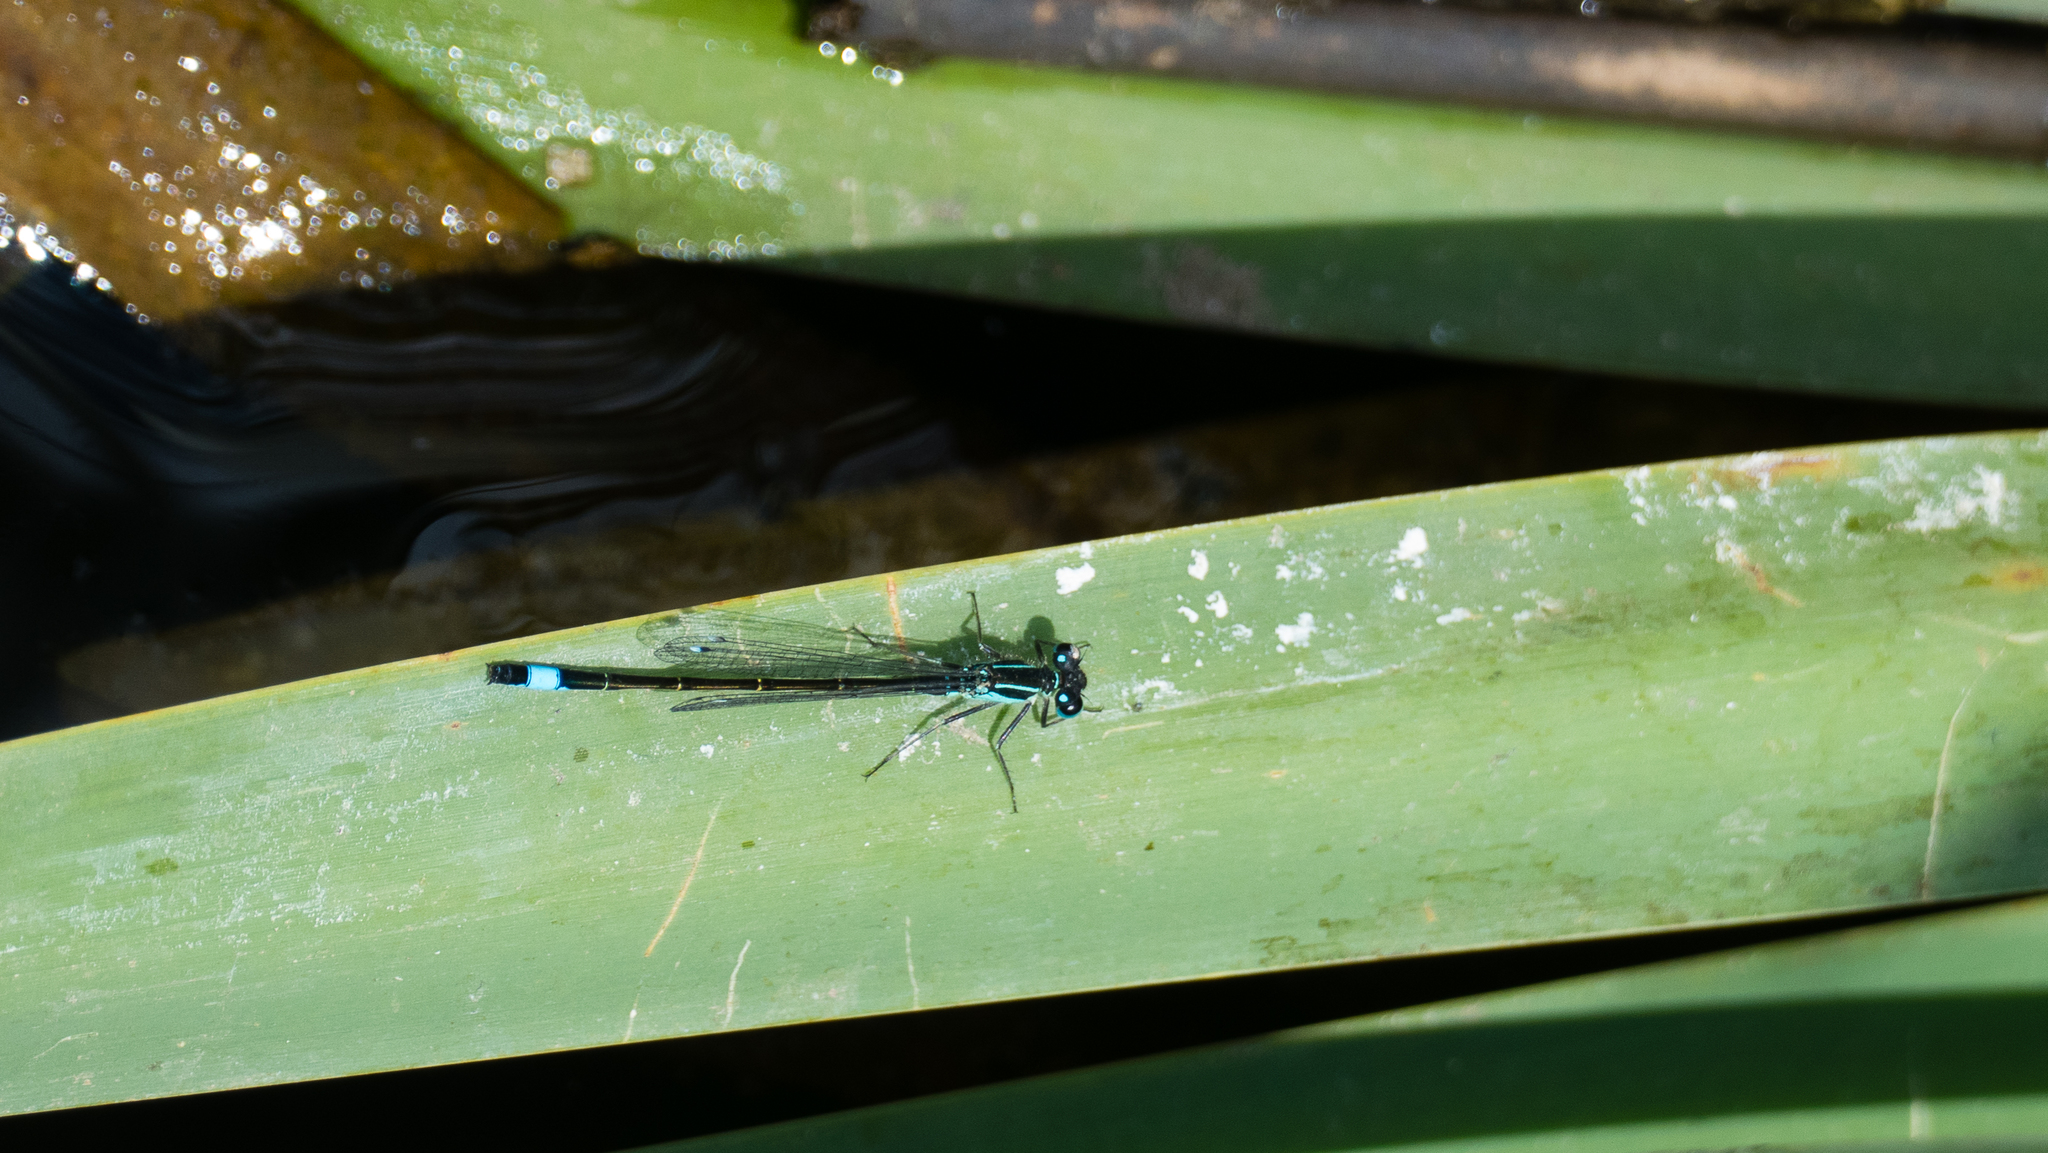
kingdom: Animalia
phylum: Arthropoda
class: Insecta
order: Odonata
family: Coenagrionidae
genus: Ischnura
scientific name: Ischnura elegans
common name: Blue-tailed damselfly
